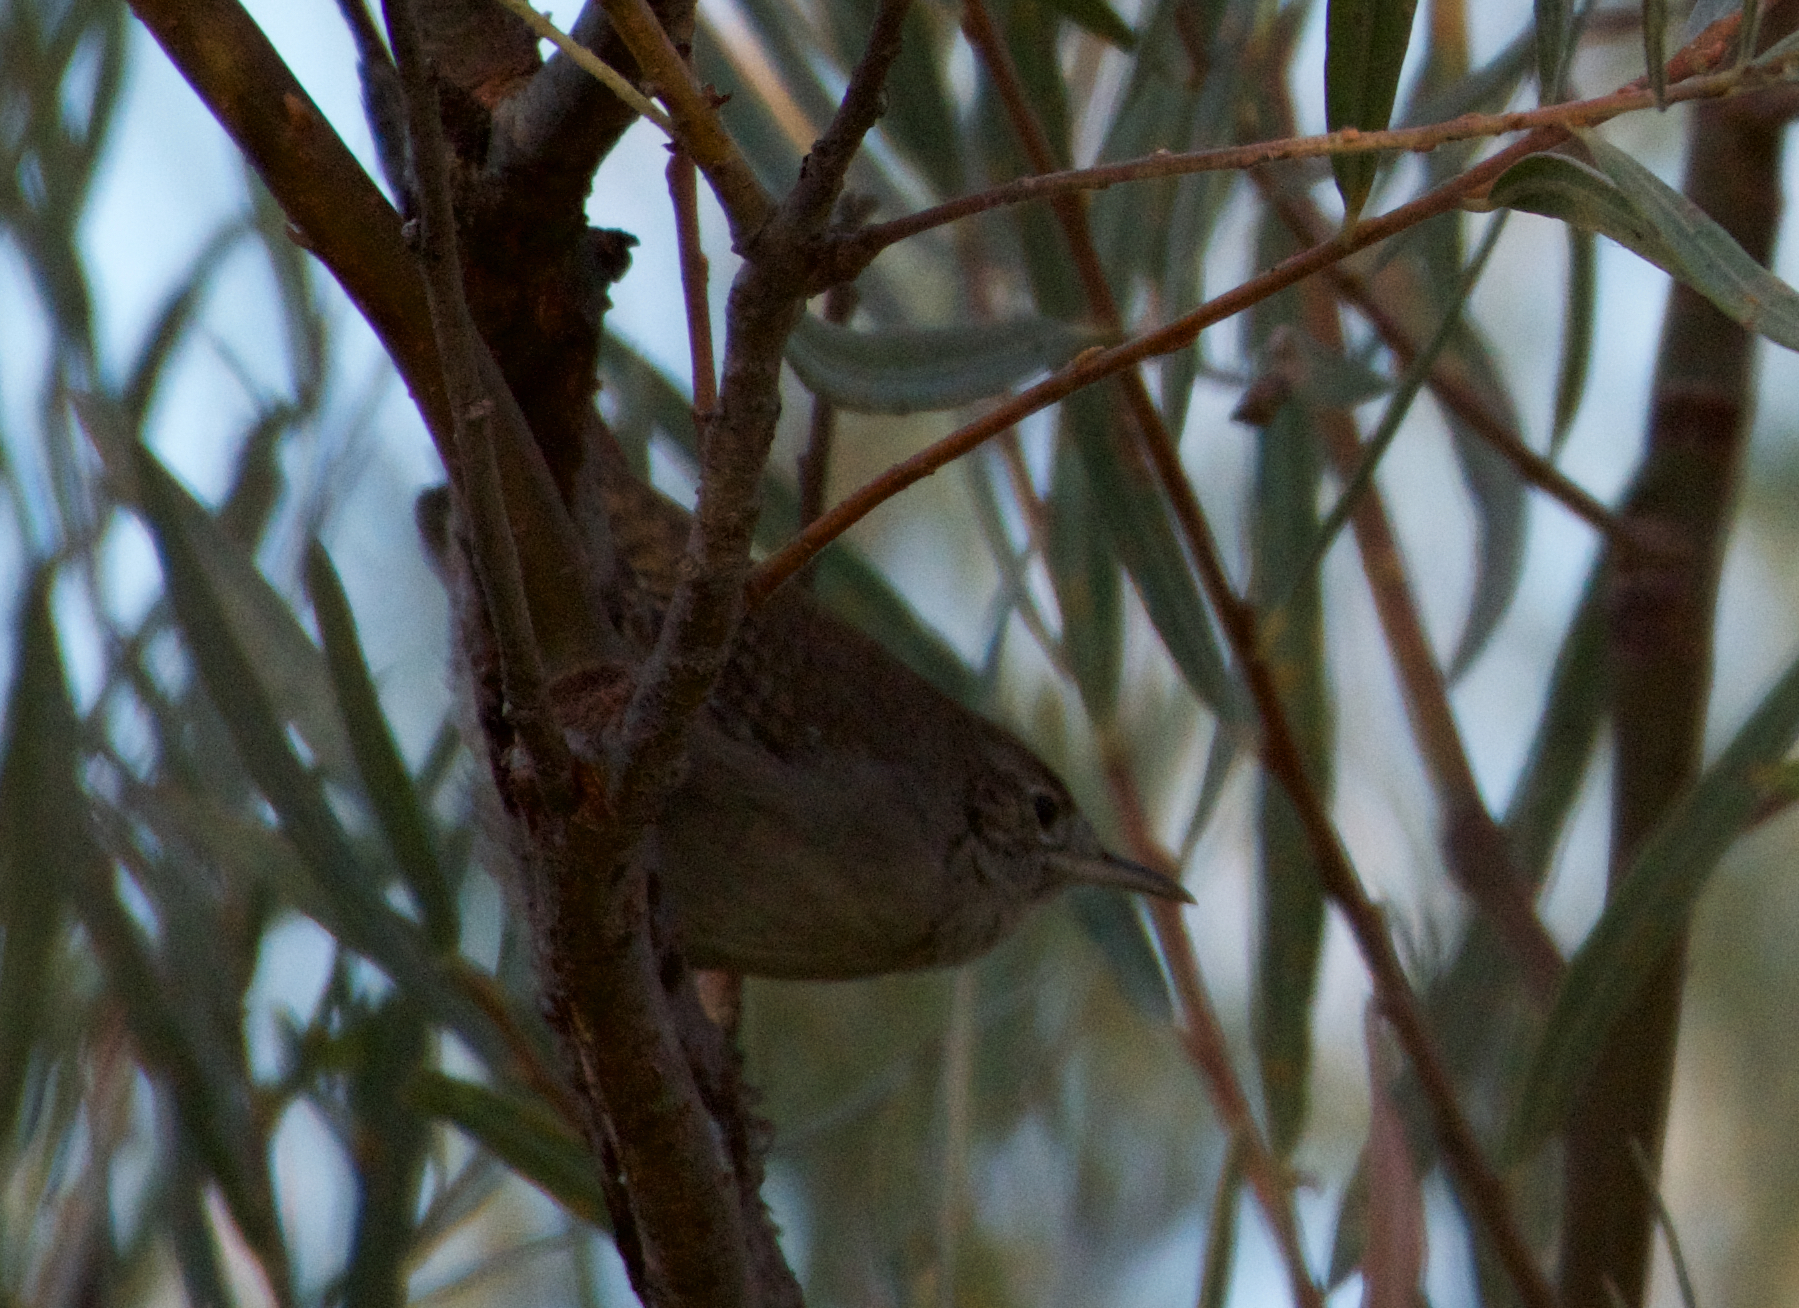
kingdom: Animalia
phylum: Chordata
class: Aves
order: Passeriformes
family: Troglodytidae
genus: Troglodytes
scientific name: Troglodytes aedon
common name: House wren
